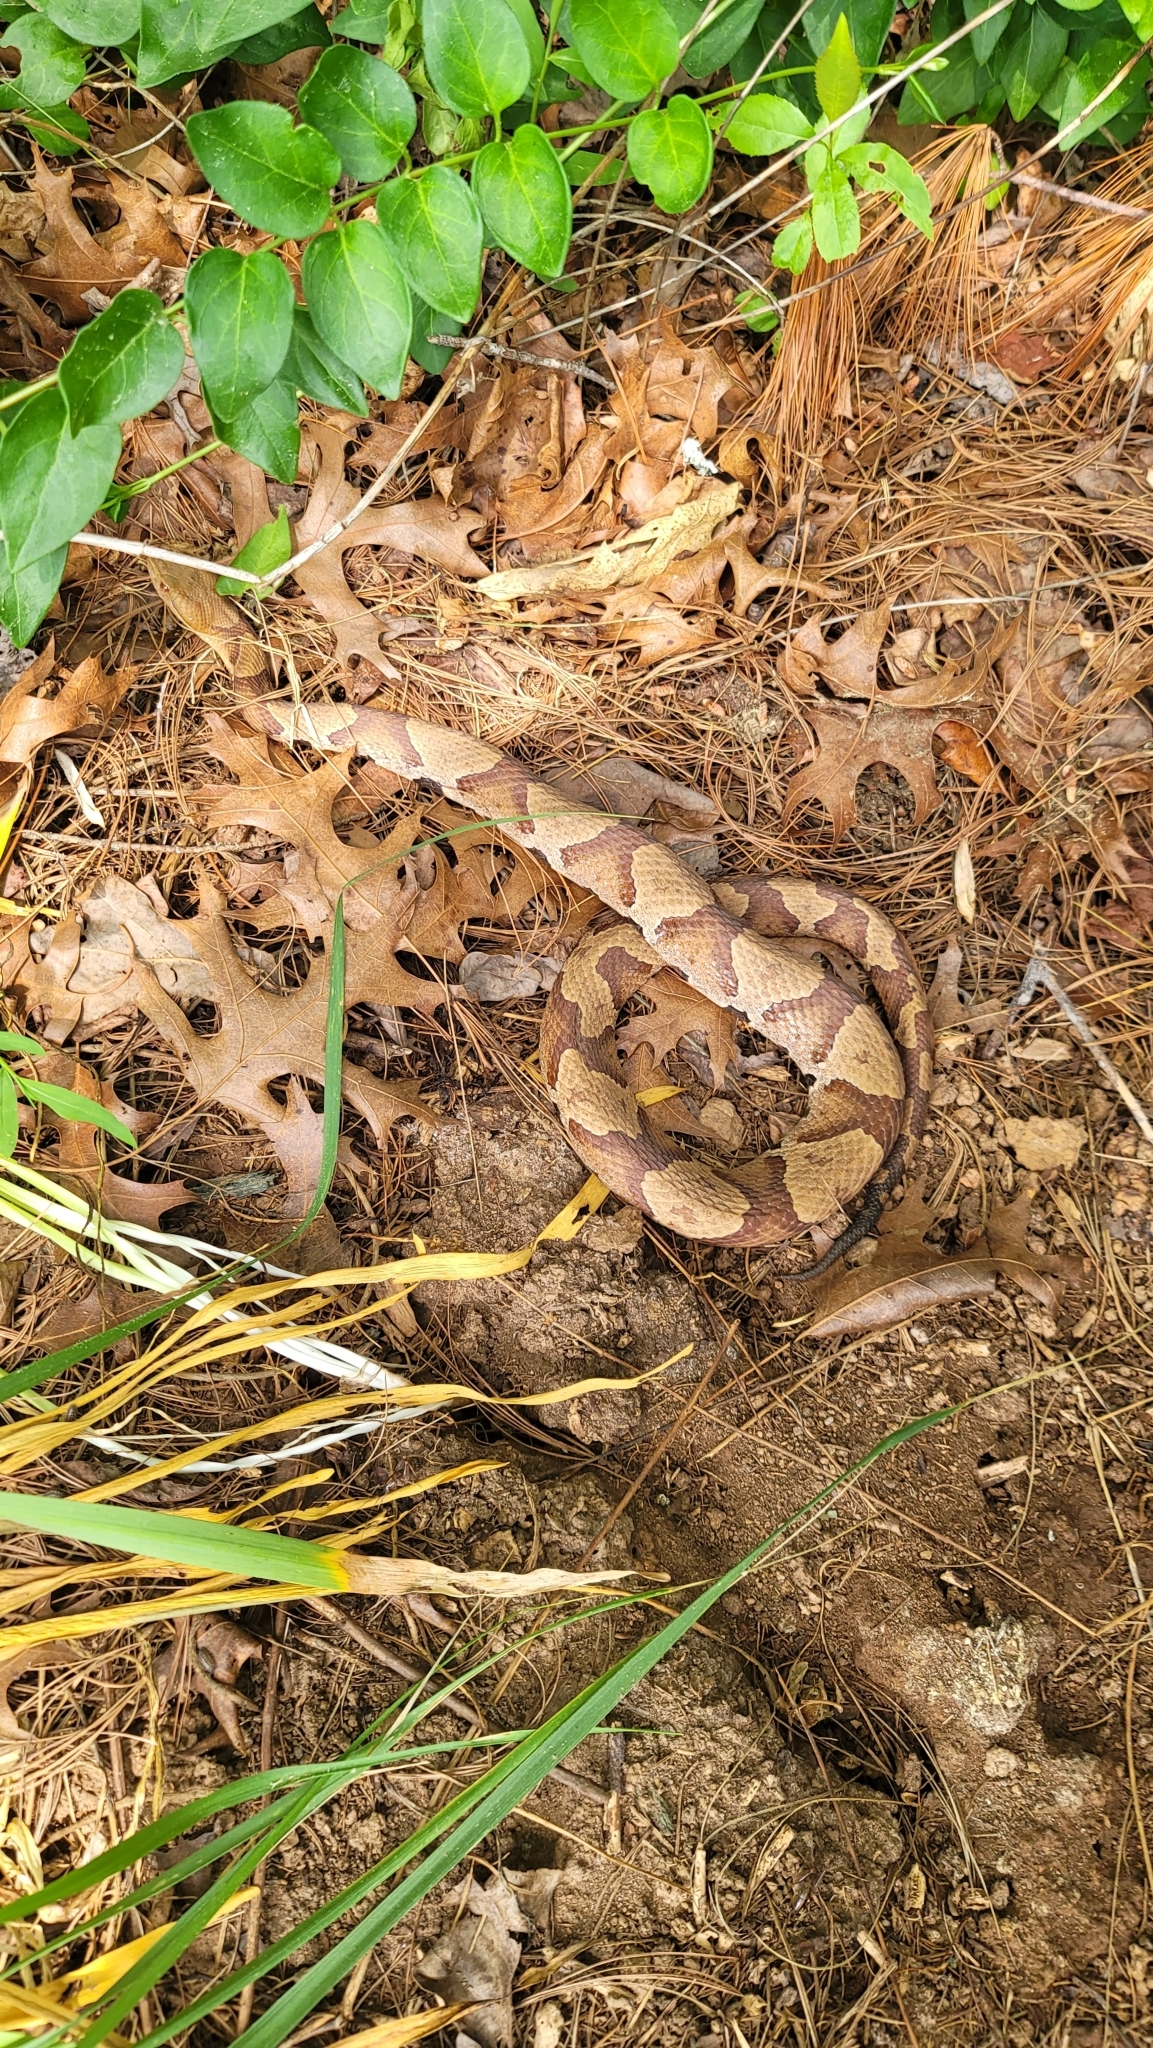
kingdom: Animalia
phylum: Chordata
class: Squamata
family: Viperidae
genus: Agkistrodon
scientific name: Agkistrodon contortrix
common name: Northern copperhead
